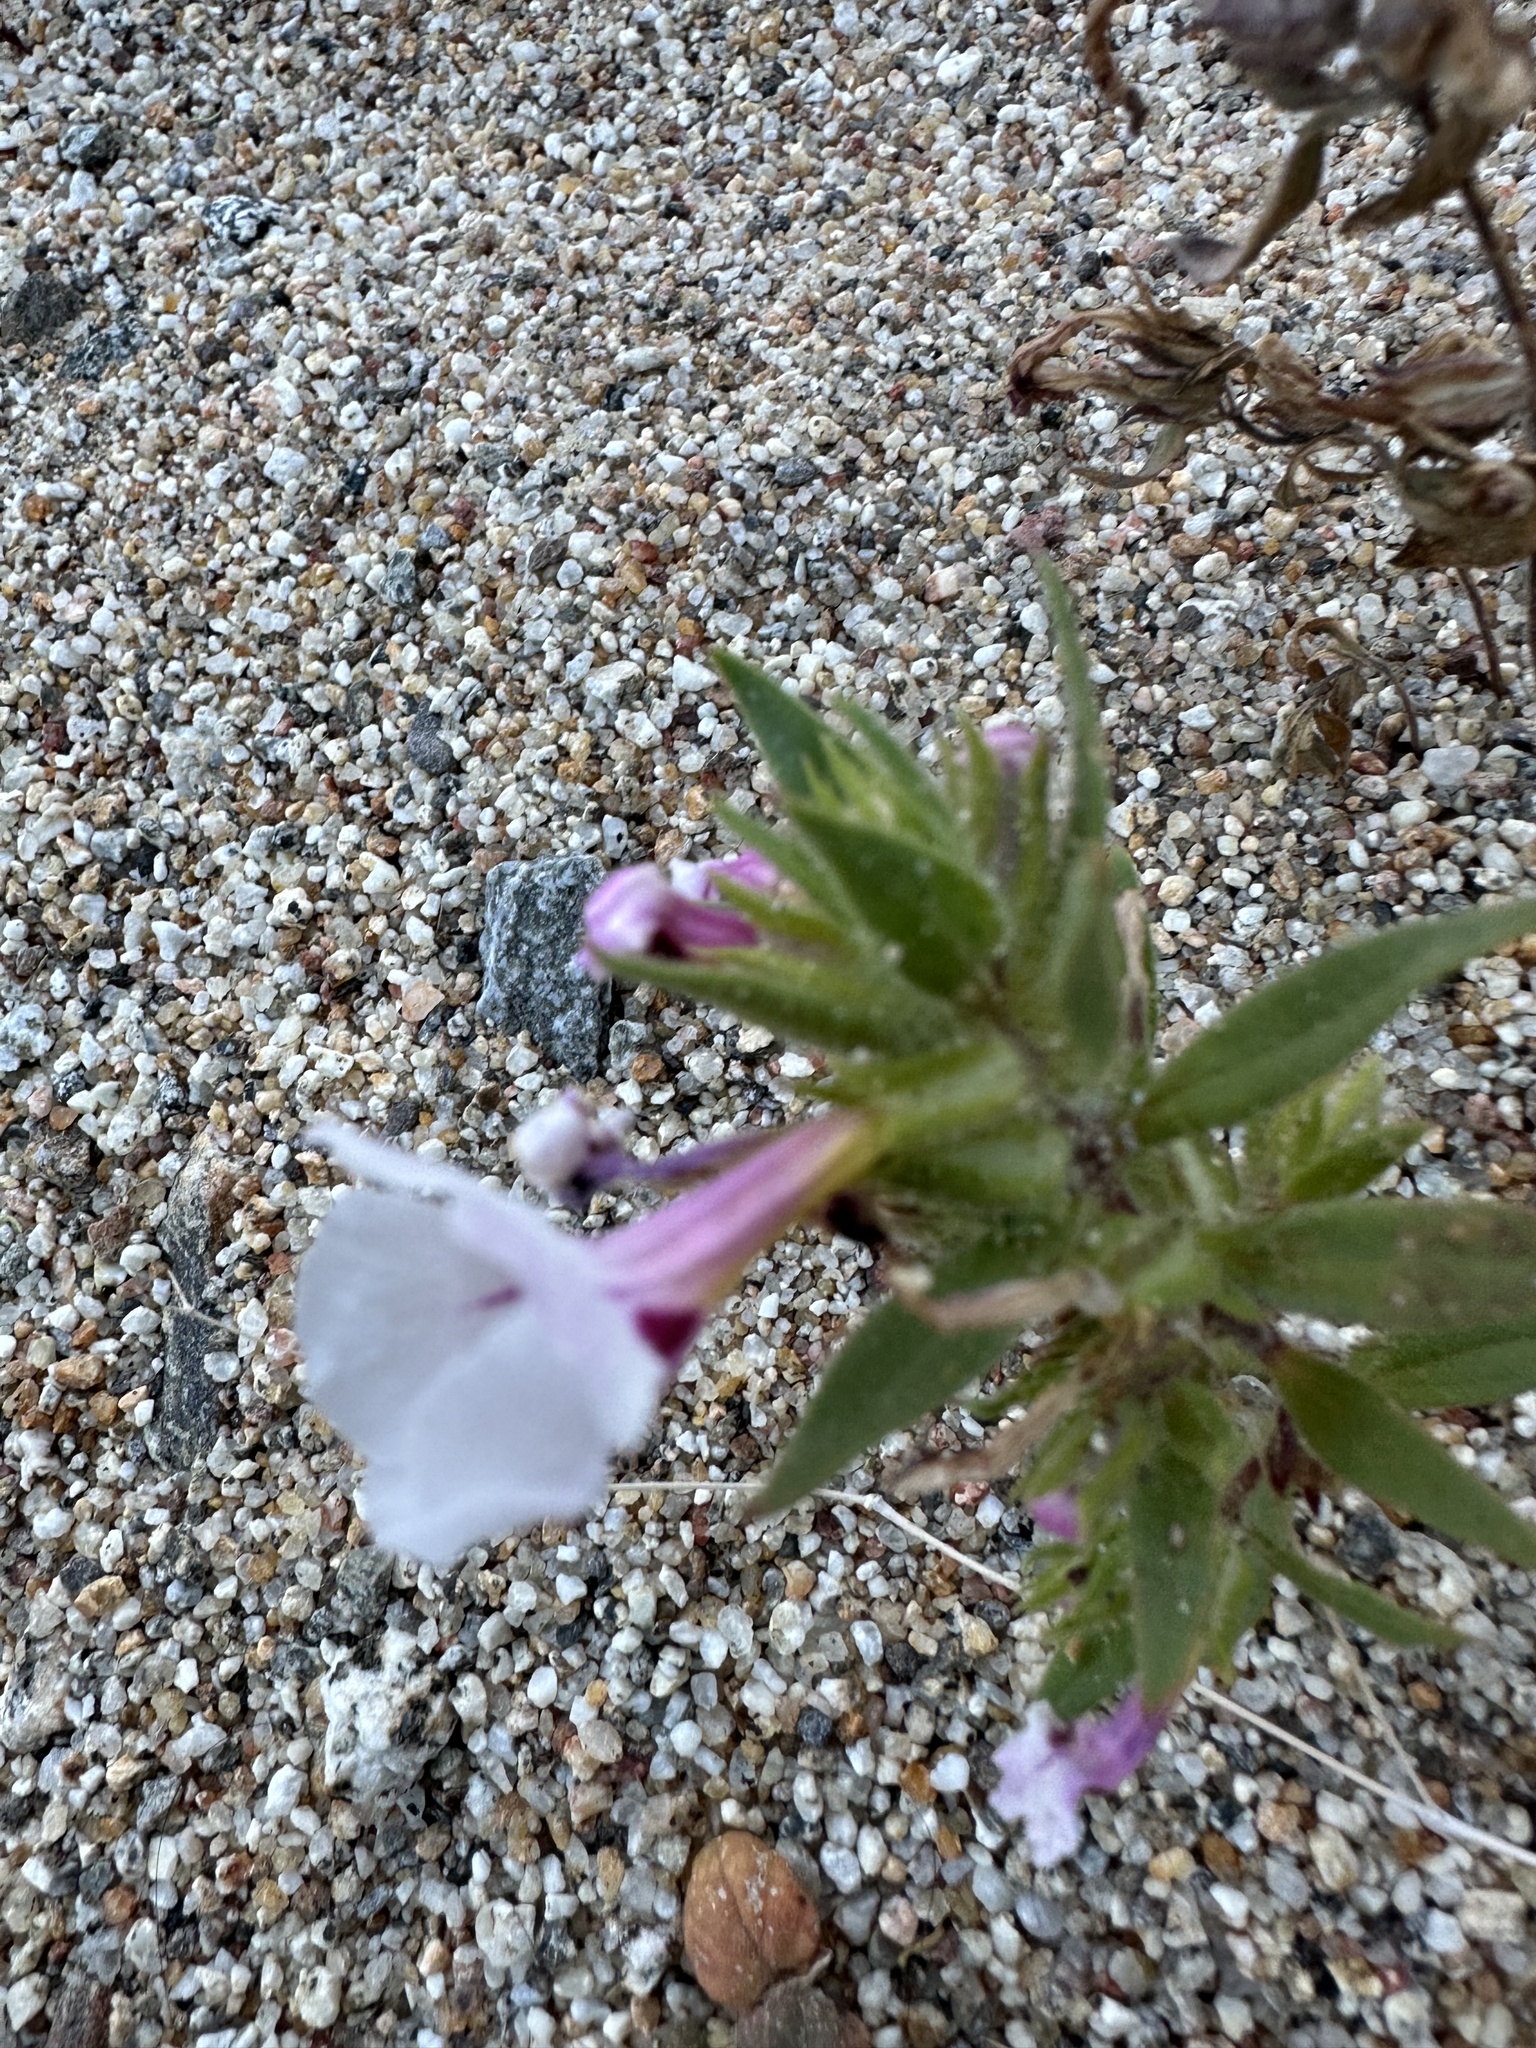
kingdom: Plantae
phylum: Tracheophyta
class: Magnoliopsida
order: Lamiales
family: Phrymaceae
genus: Diplacus
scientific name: Diplacus bigelovii
